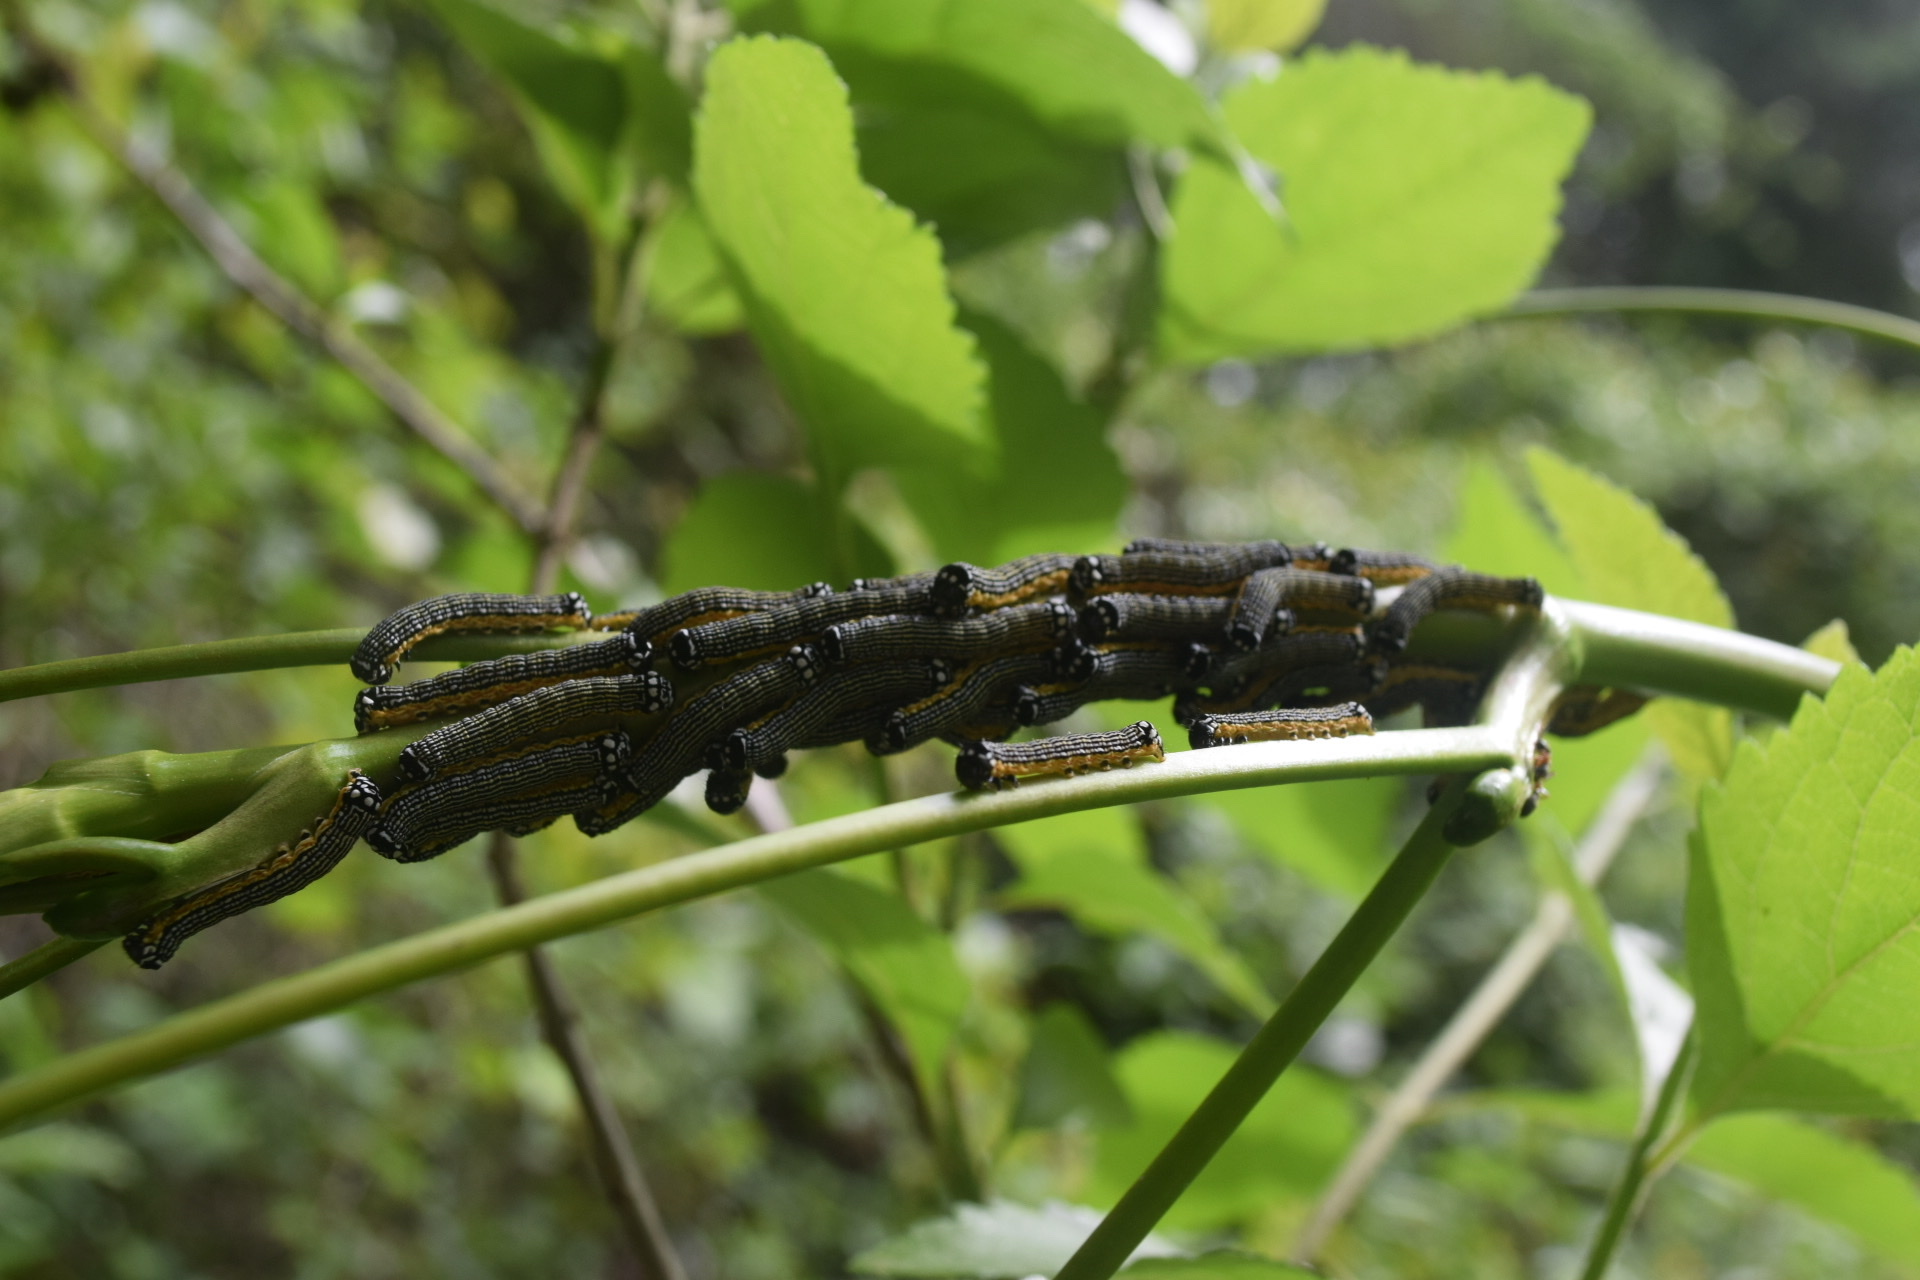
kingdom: Animalia
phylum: Arthropoda
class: Insecta
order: Lepidoptera
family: Noctuidae
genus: Phosphila
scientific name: Phosphila turbulenta
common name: Turbulent phosphila moth
